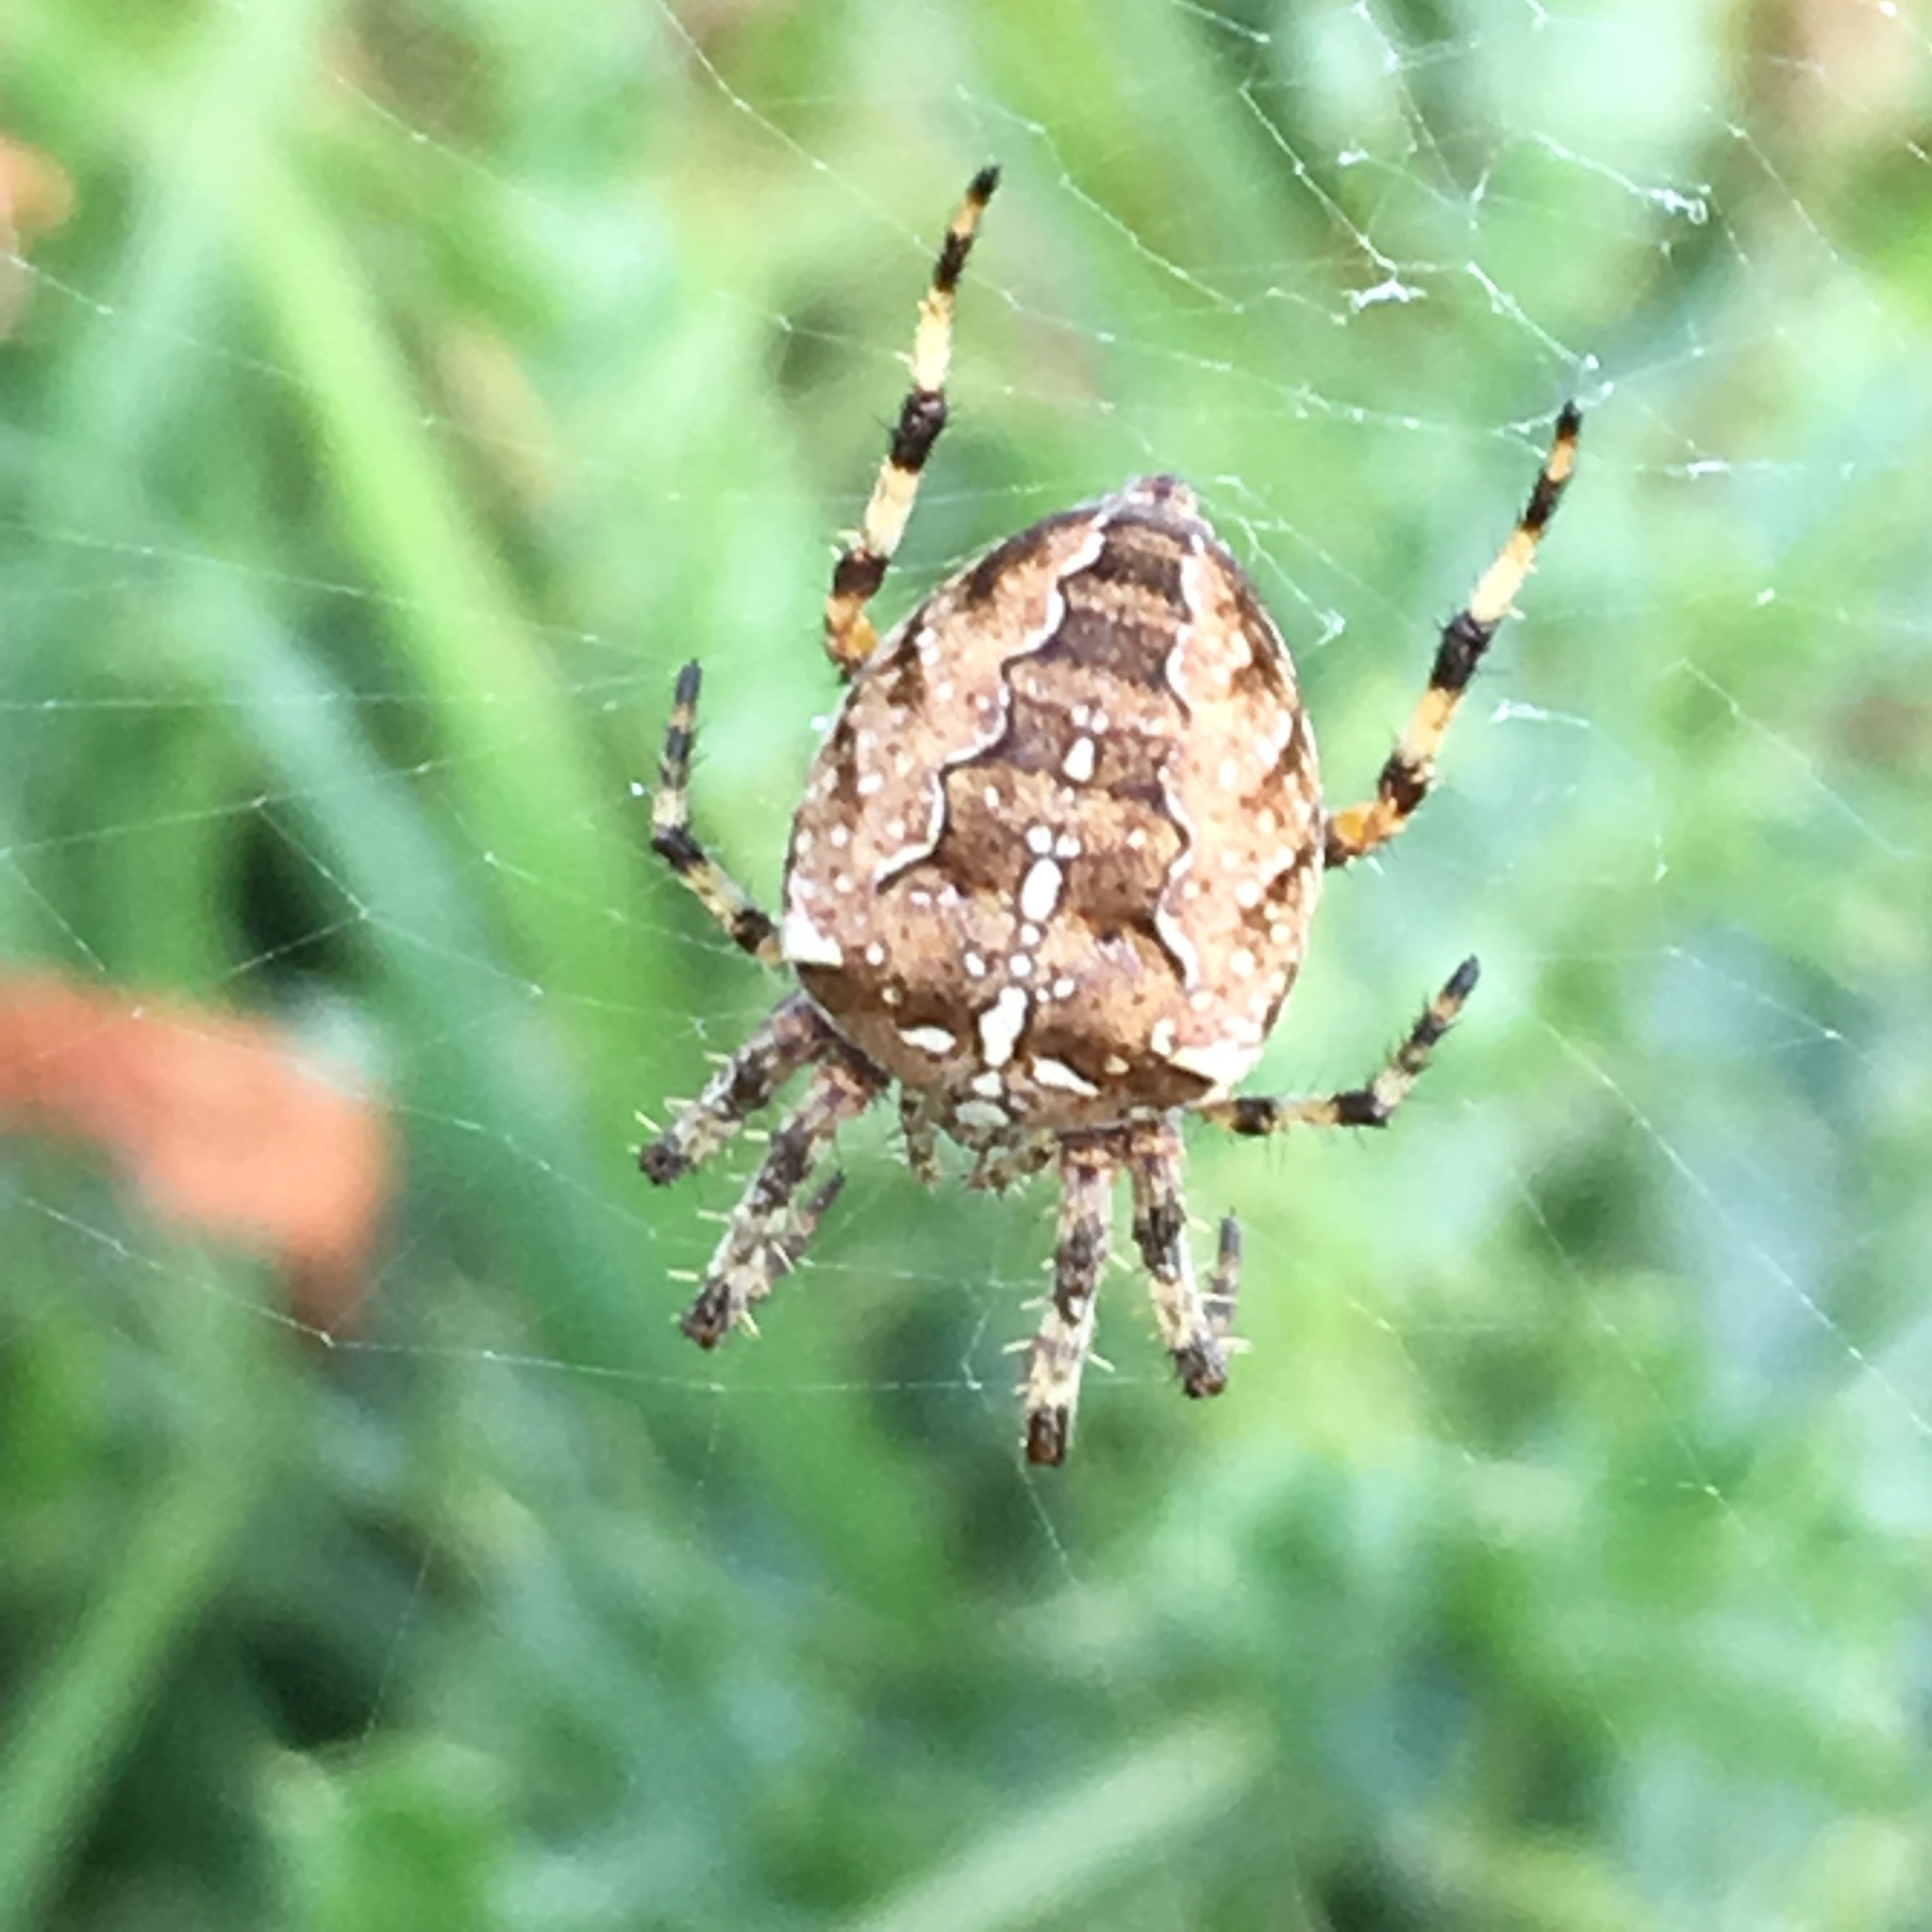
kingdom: Animalia
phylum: Arthropoda
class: Arachnida
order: Araneae
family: Araneidae
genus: Araneus
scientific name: Araneus diadematus
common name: Cross orbweaver
